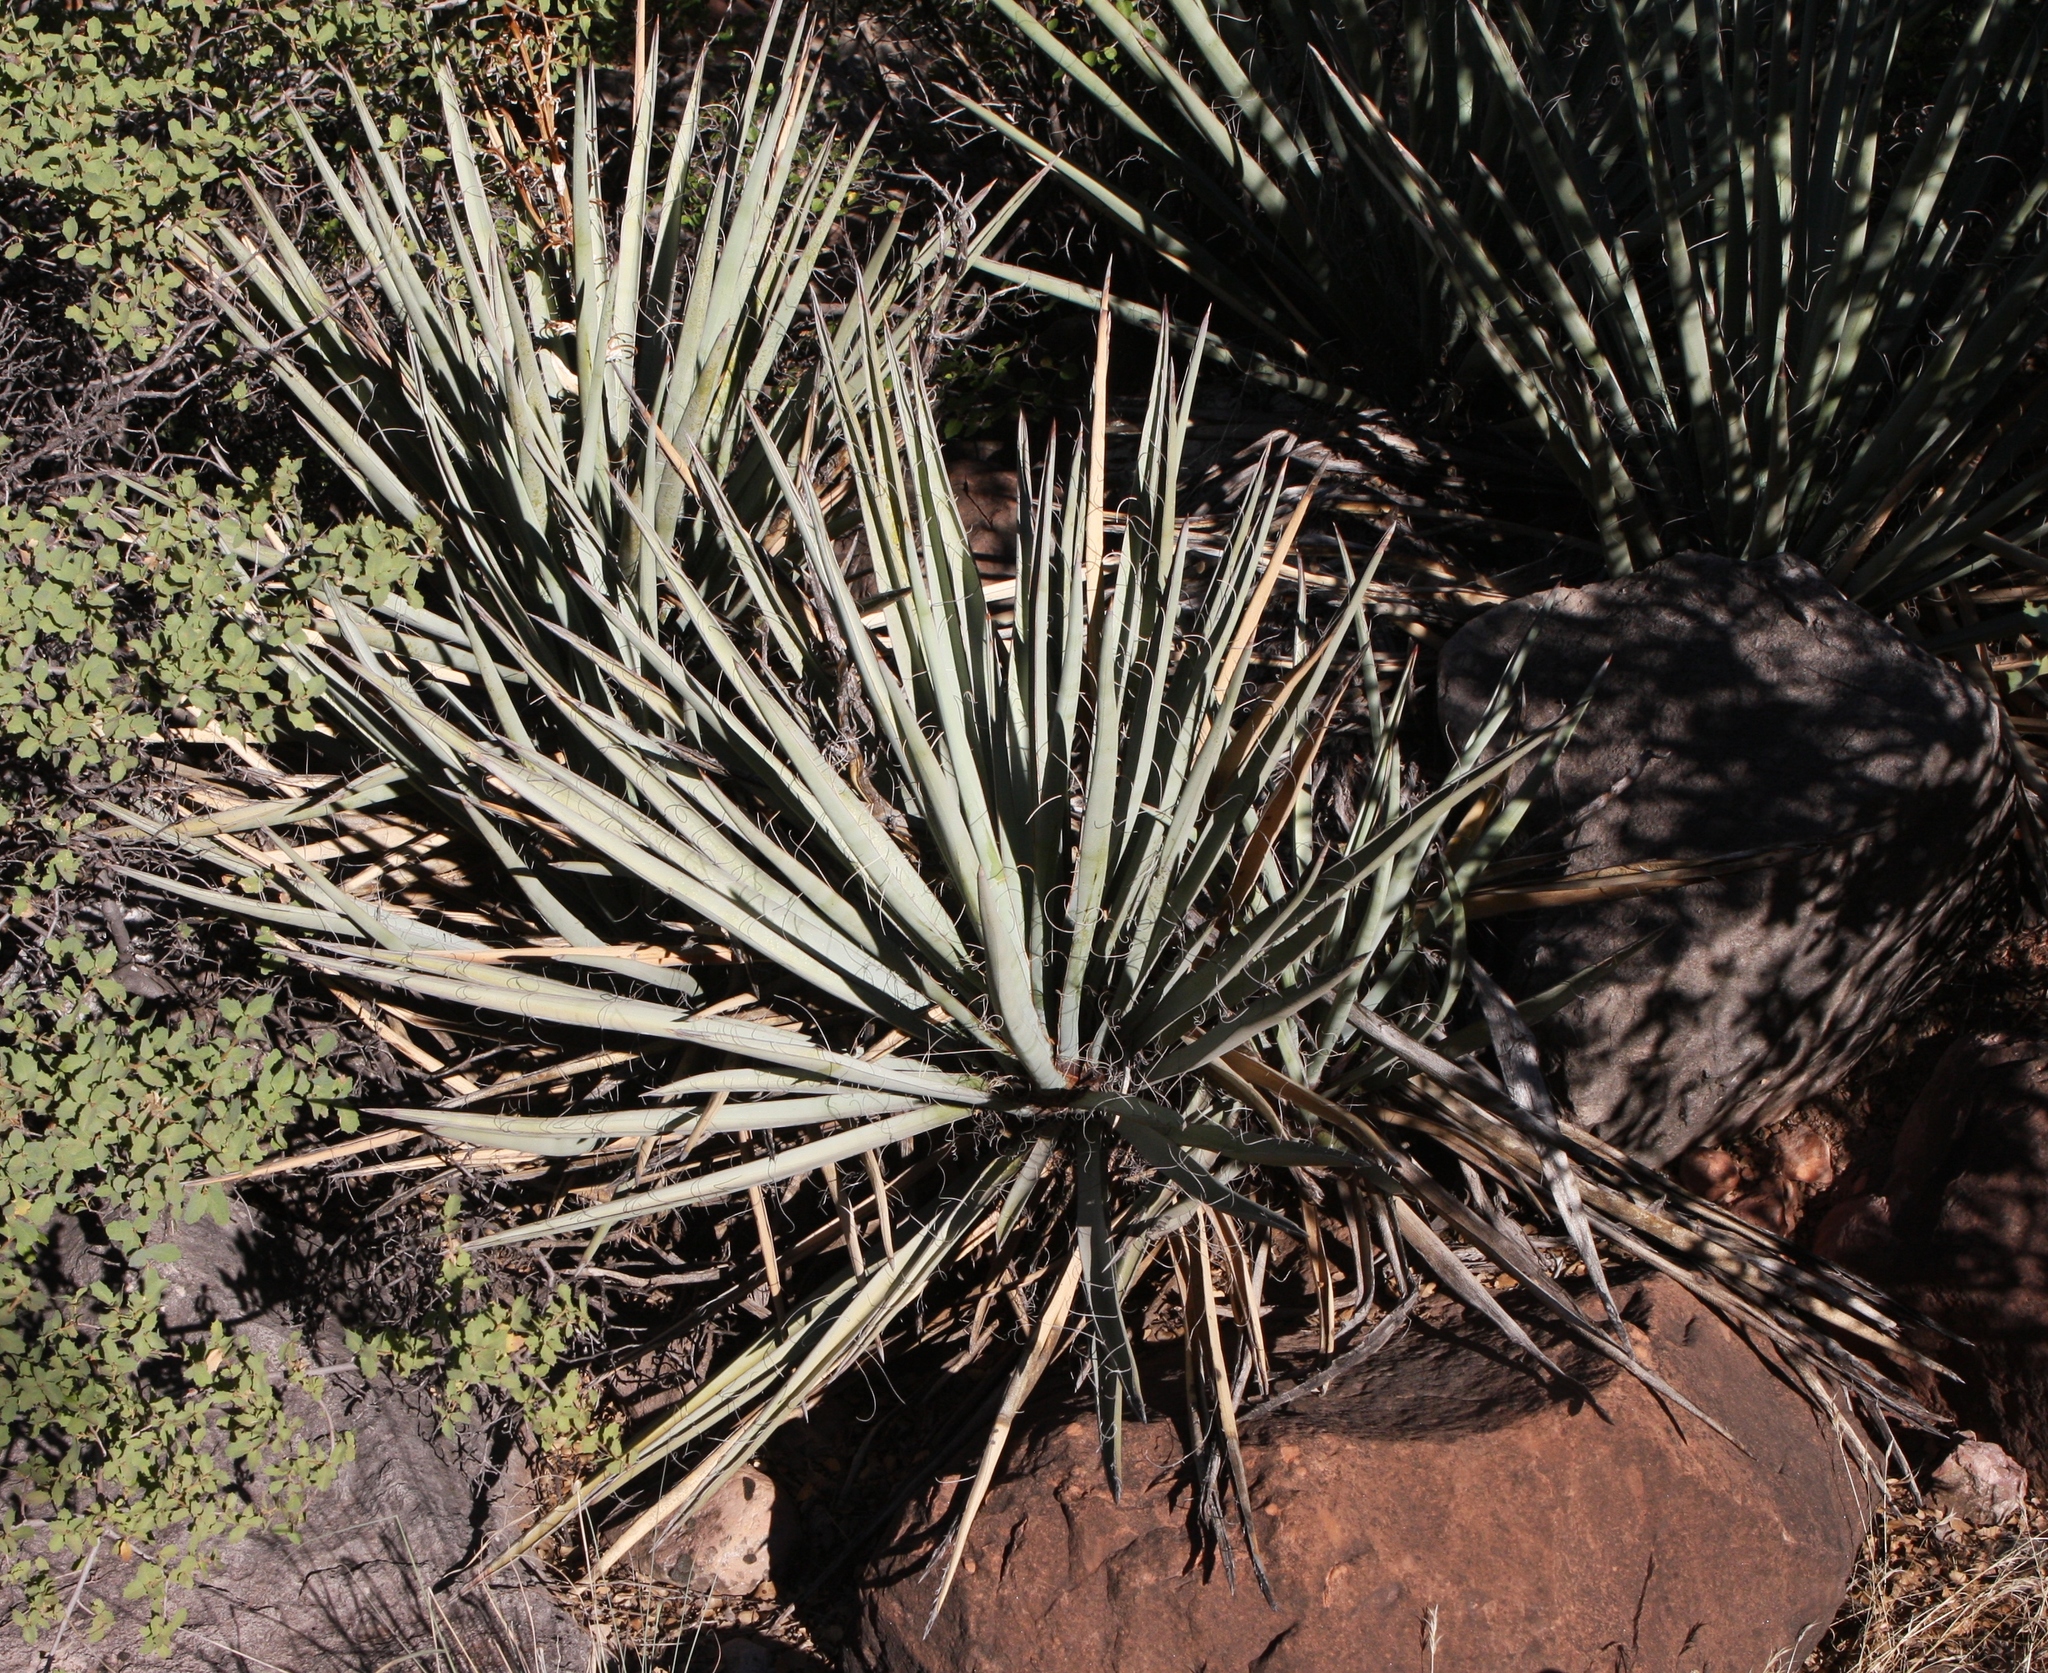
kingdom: Plantae
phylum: Tracheophyta
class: Liliopsida
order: Asparagales
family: Asparagaceae
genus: Yucca
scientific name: Yucca baccata
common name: Banana yucca
